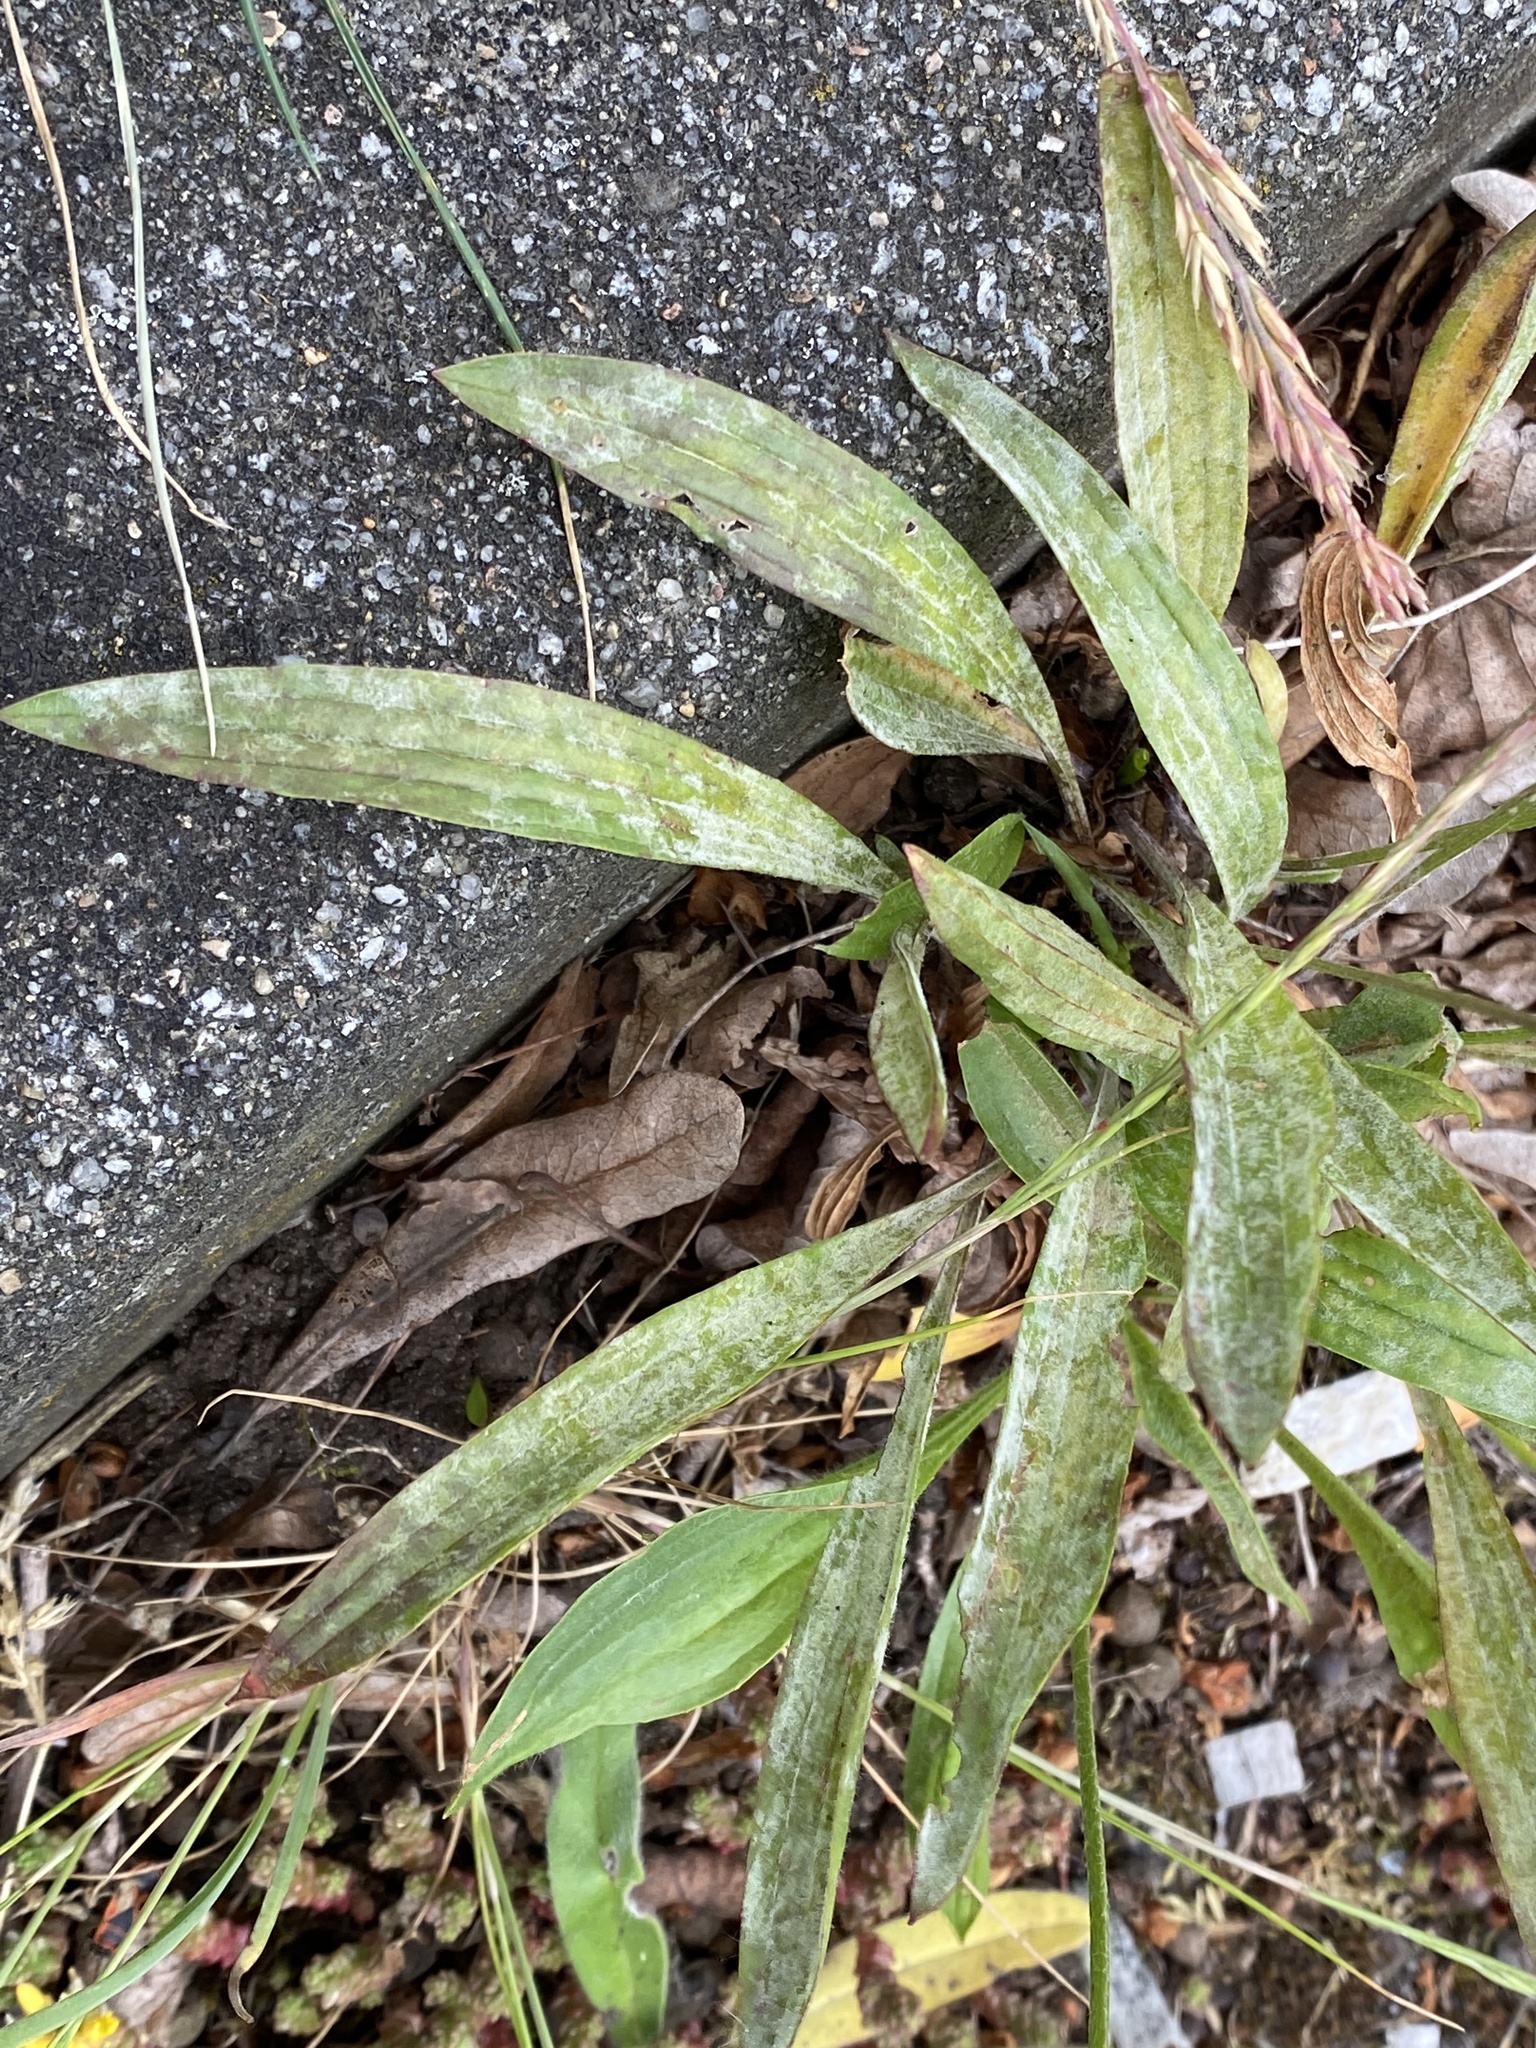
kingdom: Plantae
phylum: Tracheophyta
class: Magnoliopsida
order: Lamiales
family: Plantaginaceae
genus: Plantago
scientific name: Plantago lanceolata
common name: Ribwort plantain
